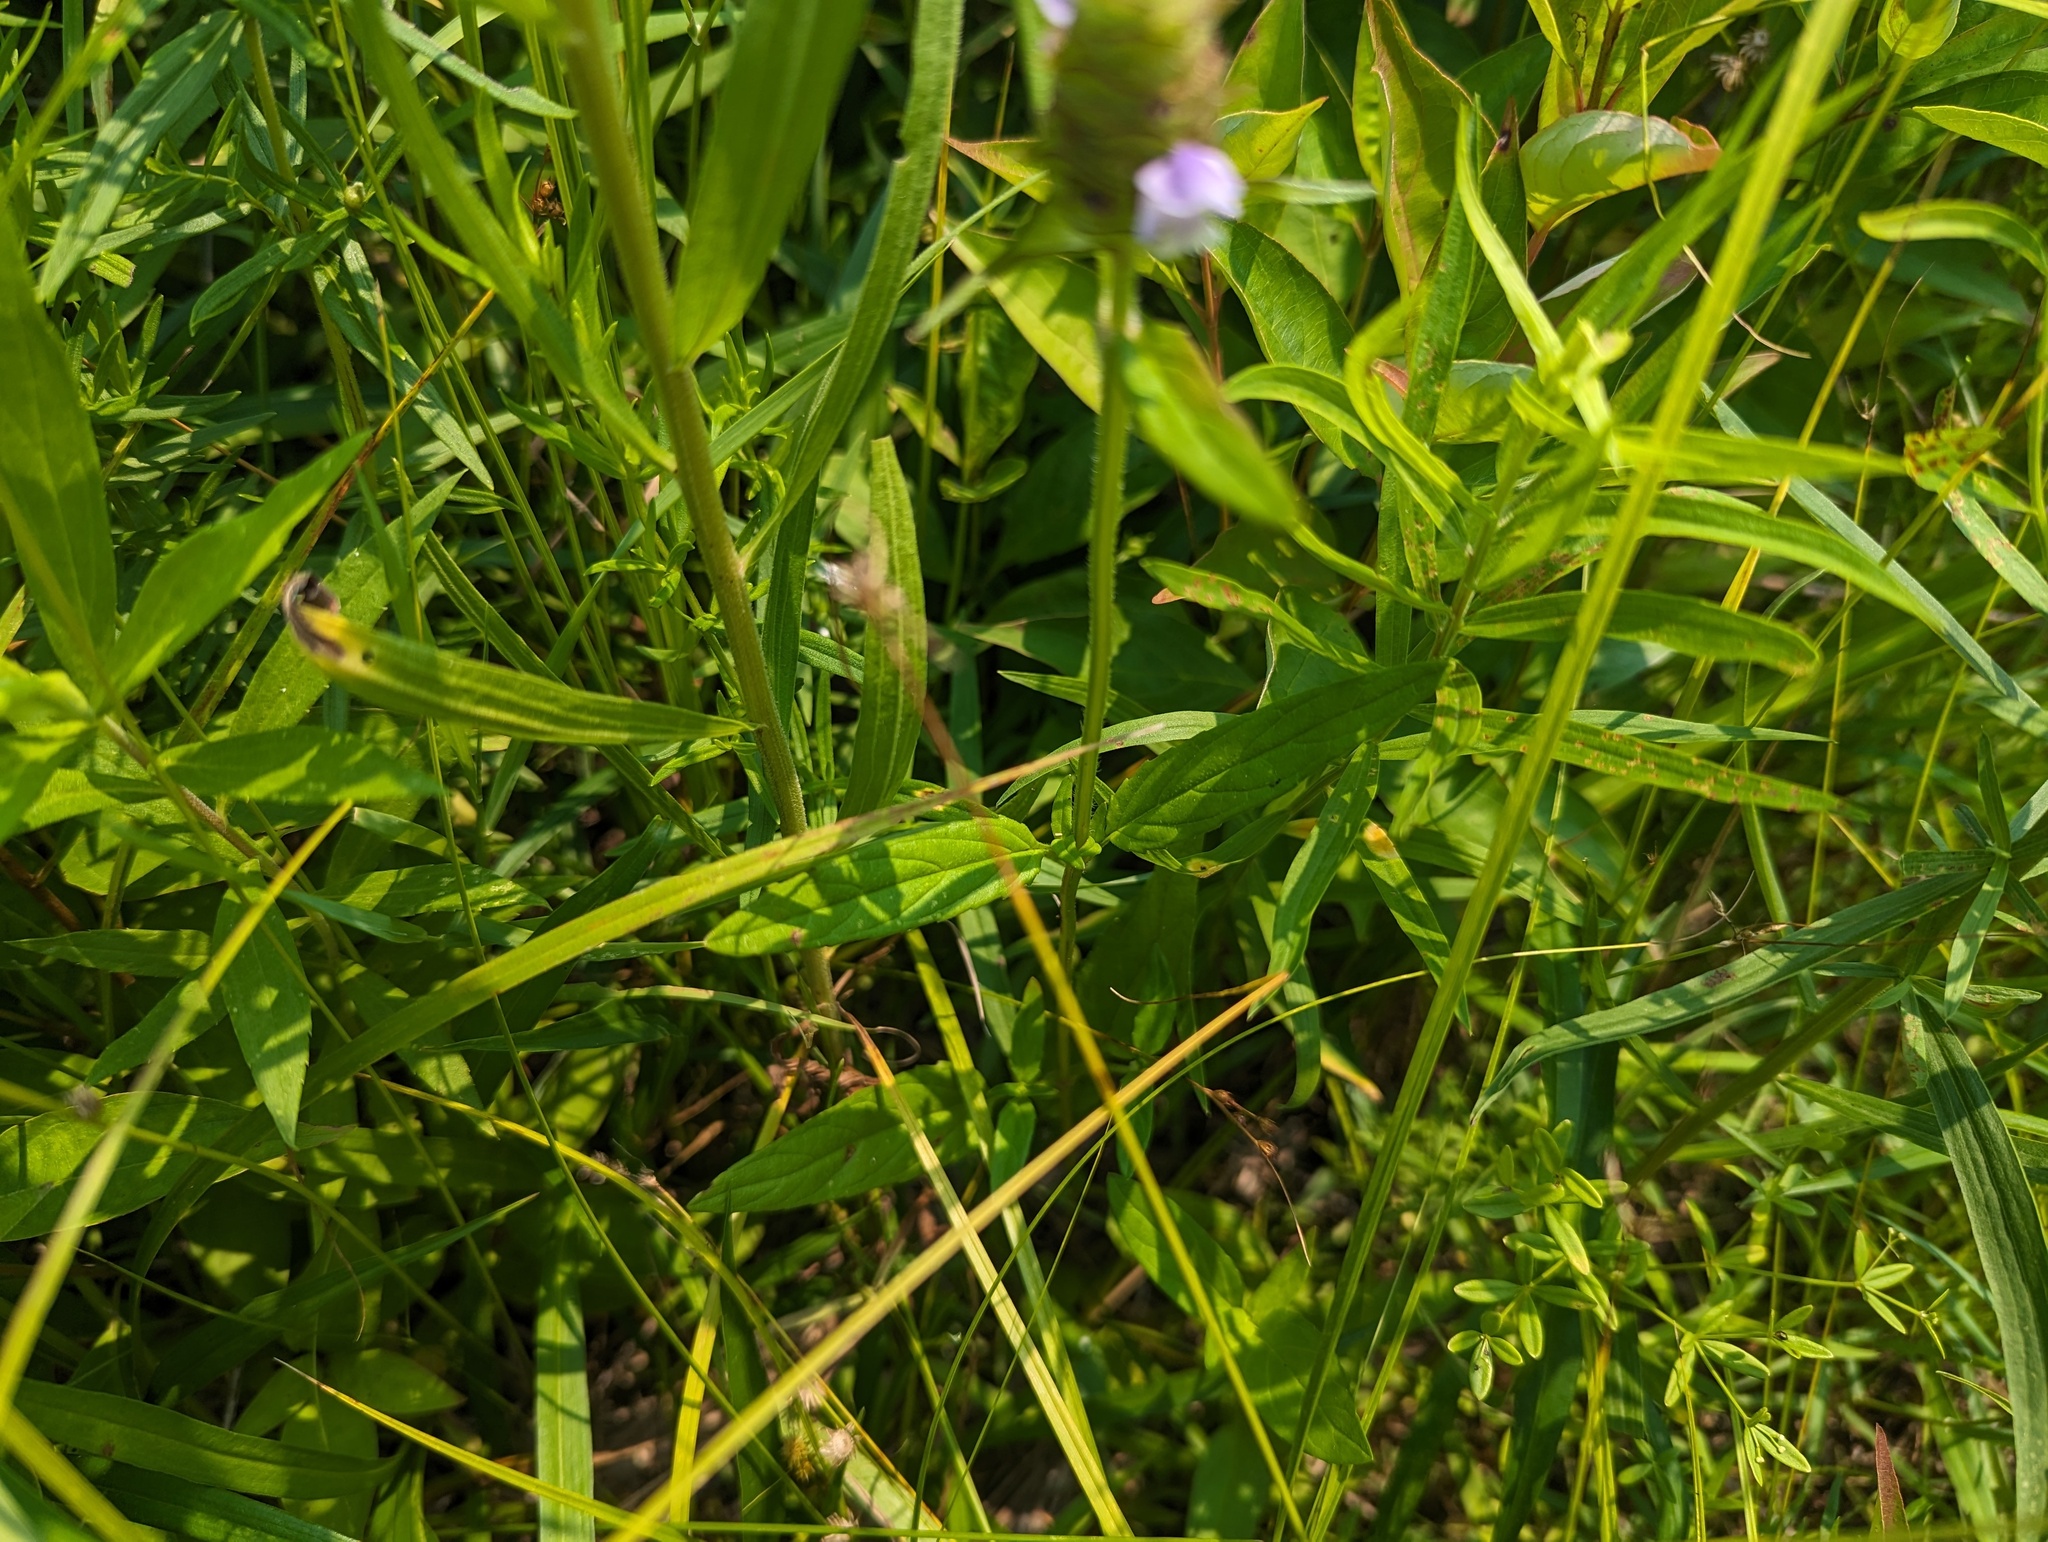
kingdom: Plantae
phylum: Tracheophyta
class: Magnoliopsida
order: Lamiales
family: Lamiaceae
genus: Prunella
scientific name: Prunella vulgaris
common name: Heal-all
